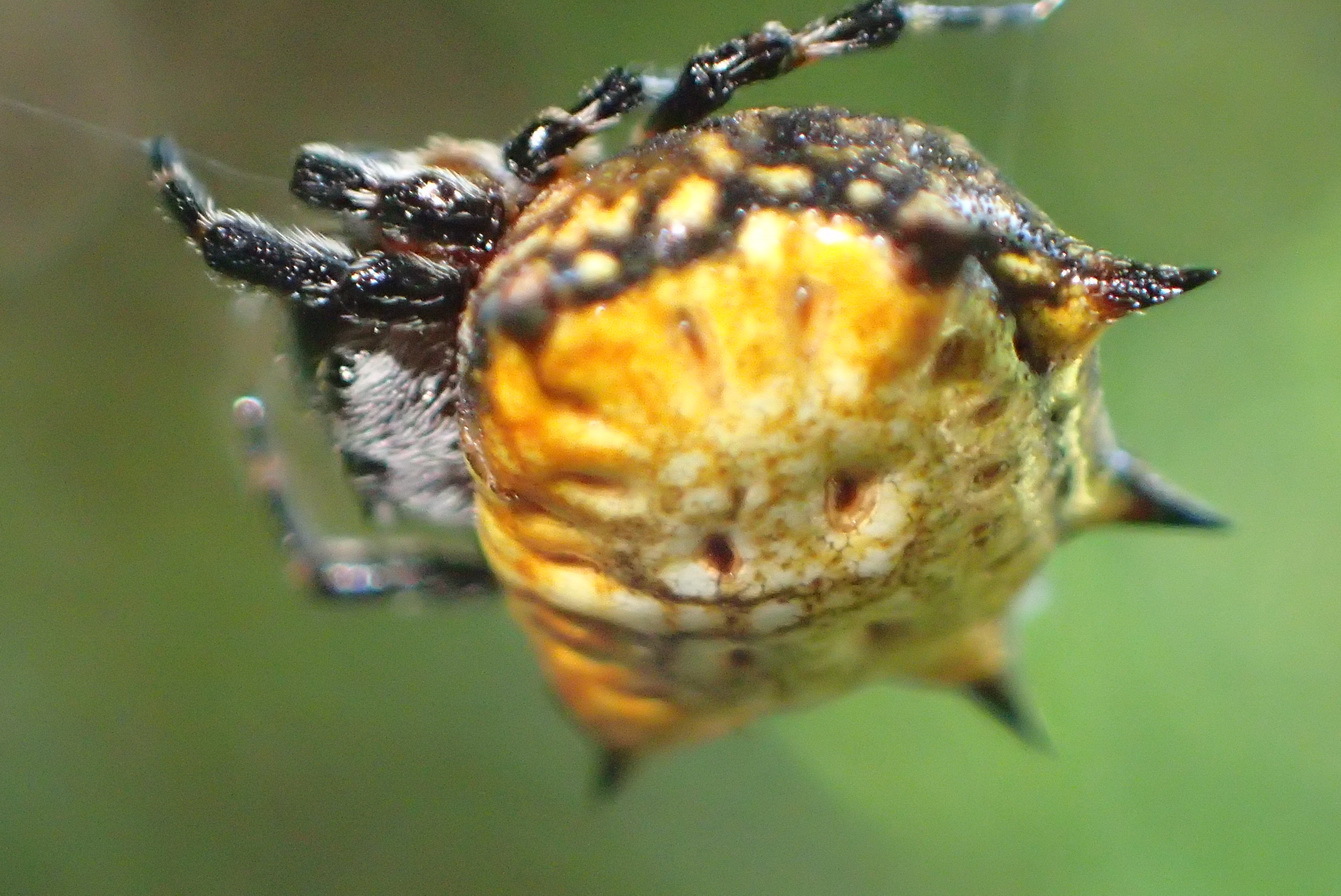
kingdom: Animalia
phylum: Arthropoda
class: Arachnida
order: Araneae
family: Araneidae
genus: Isoxya
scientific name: Isoxya tabulata
